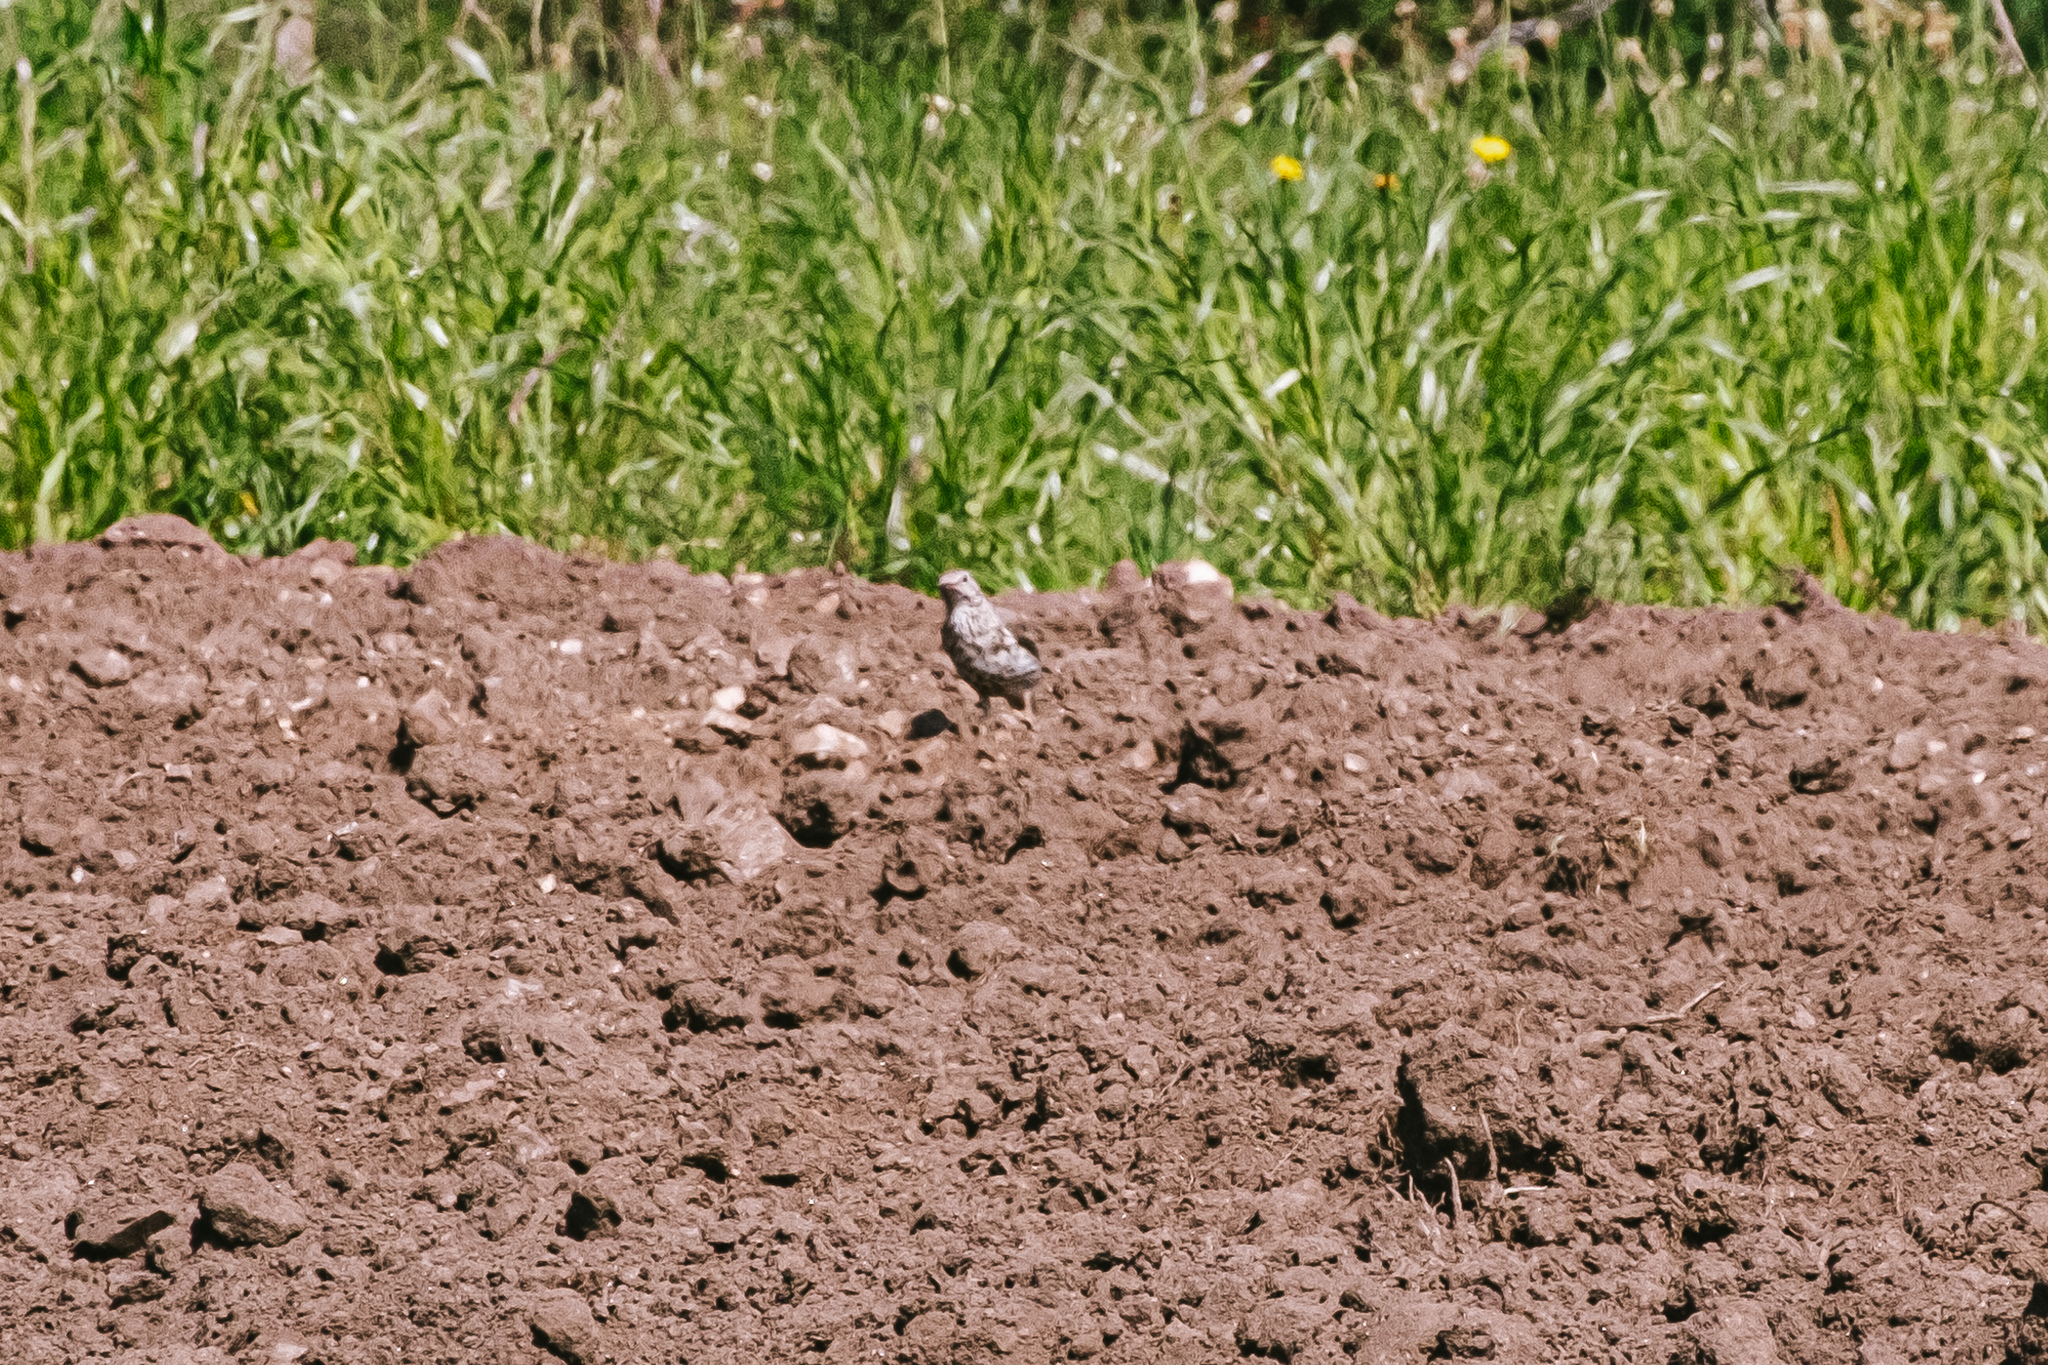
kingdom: Animalia
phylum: Chordata
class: Aves
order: Passeriformes
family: Turdidae
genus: Turdus
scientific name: Turdus viscivorus
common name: Mistle thrush
